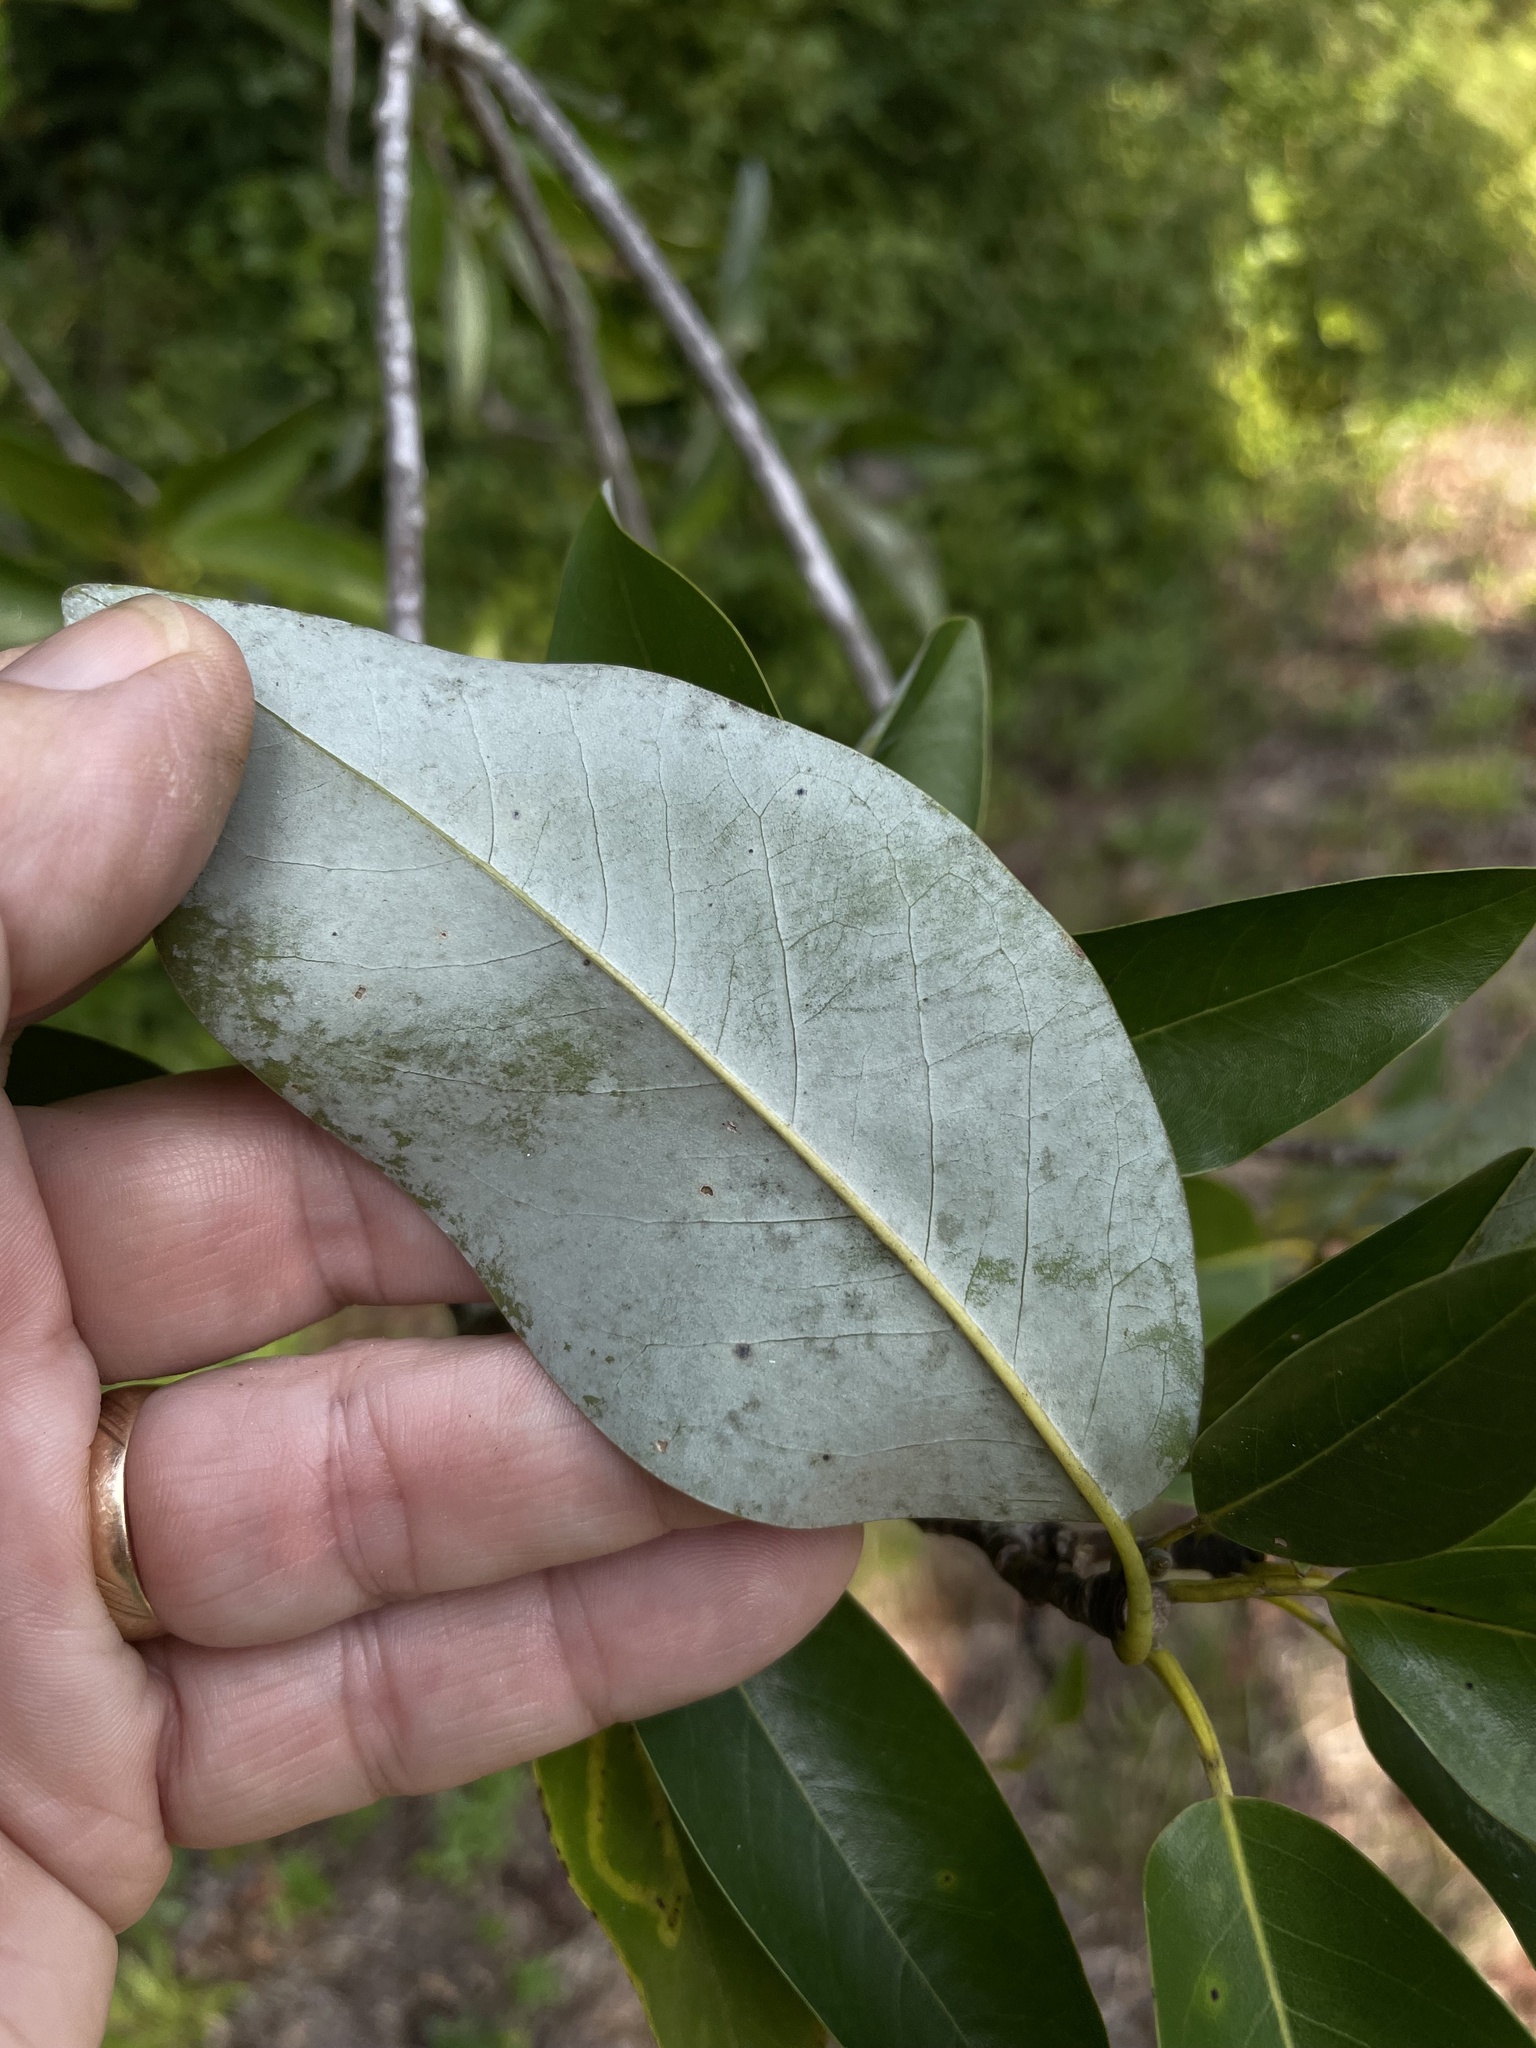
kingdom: Plantae
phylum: Tracheophyta
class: Magnoliopsida
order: Magnoliales
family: Magnoliaceae
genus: Magnolia
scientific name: Magnolia virginiana
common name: Swamp bay
